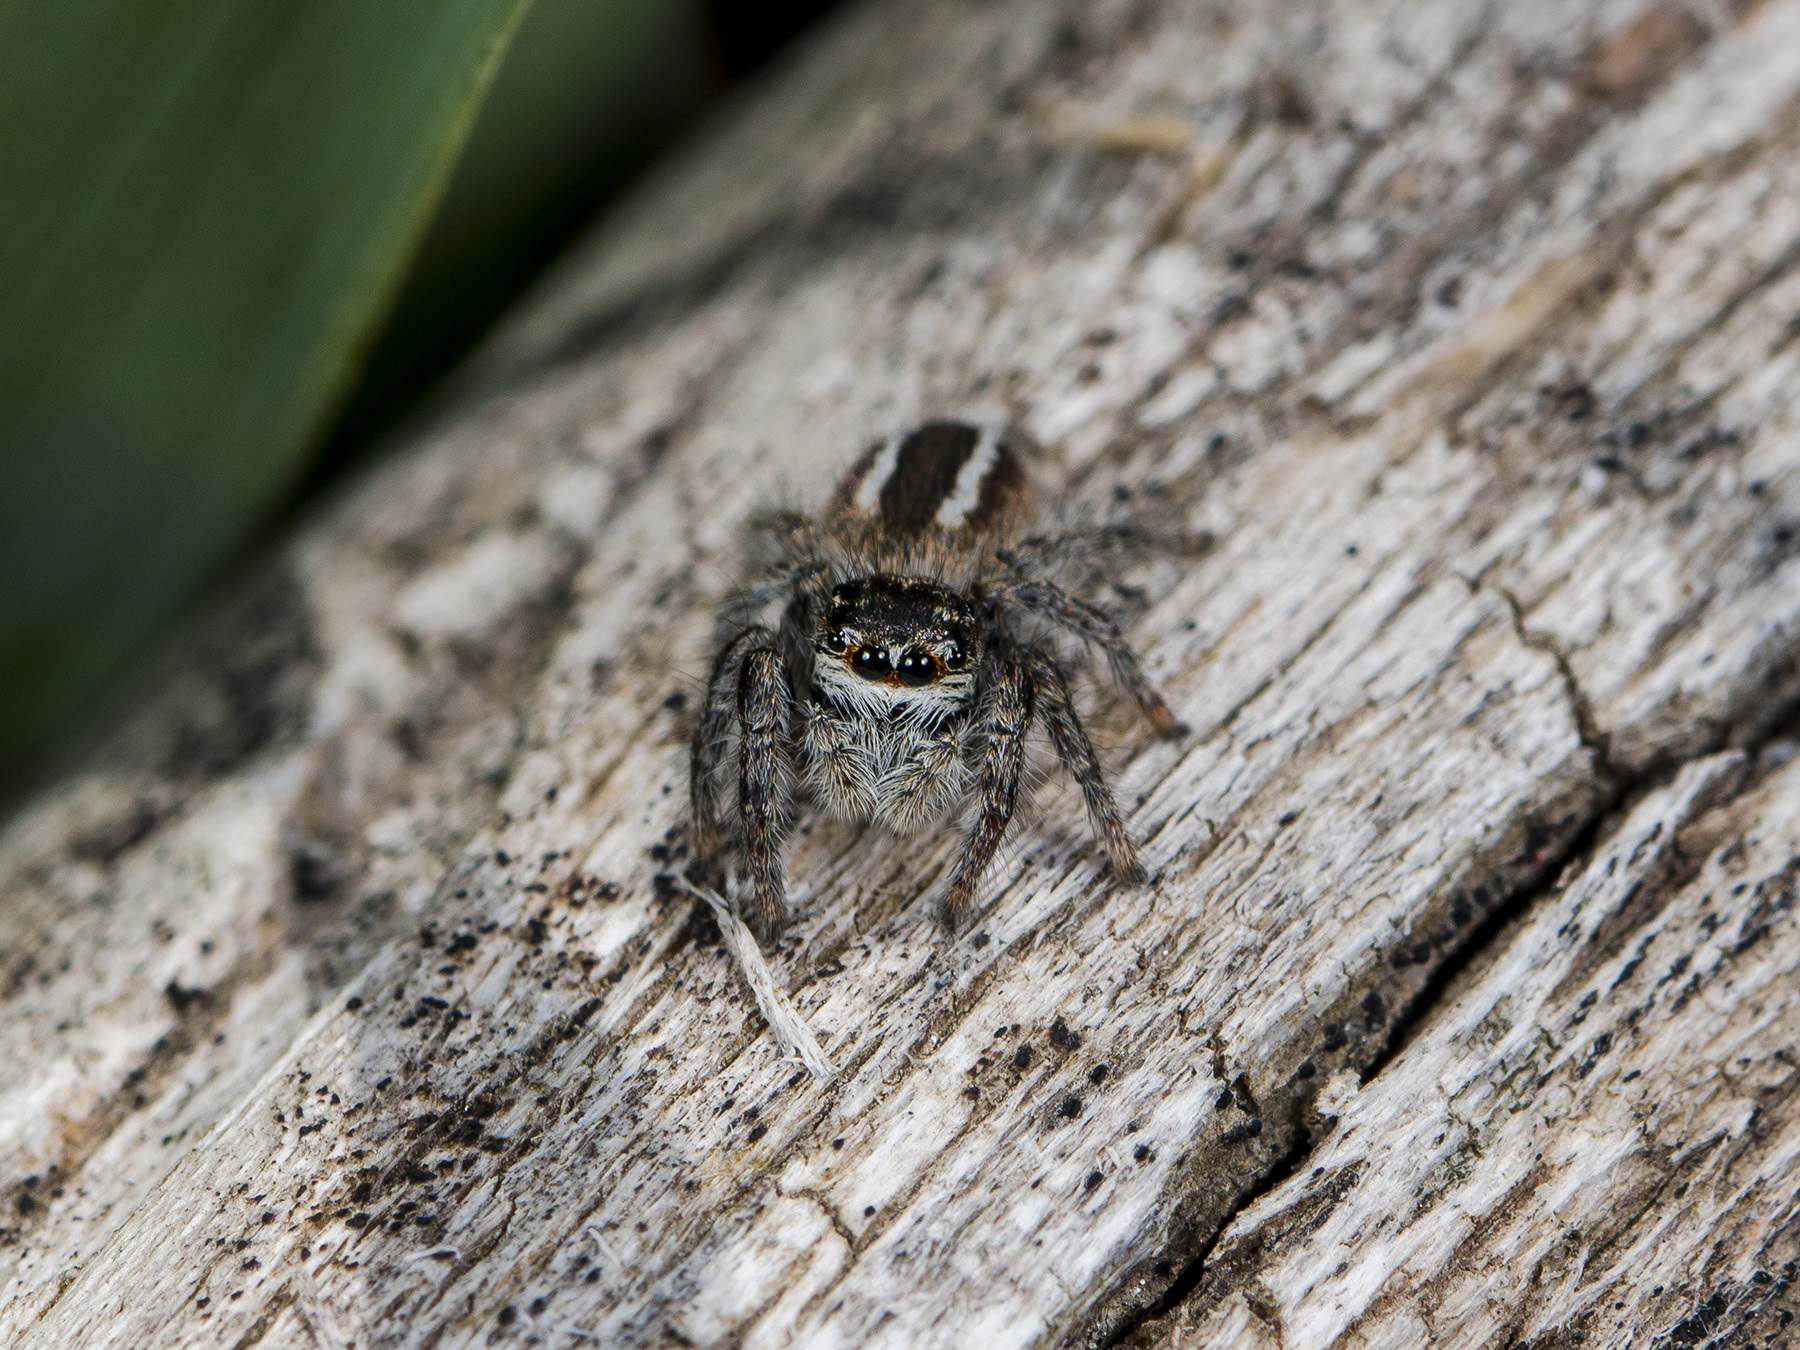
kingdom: Animalia
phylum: Arthropoda
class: Arachnida
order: Araneae
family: Salticidae
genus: Philaeus
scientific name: Philaeus chrysops
